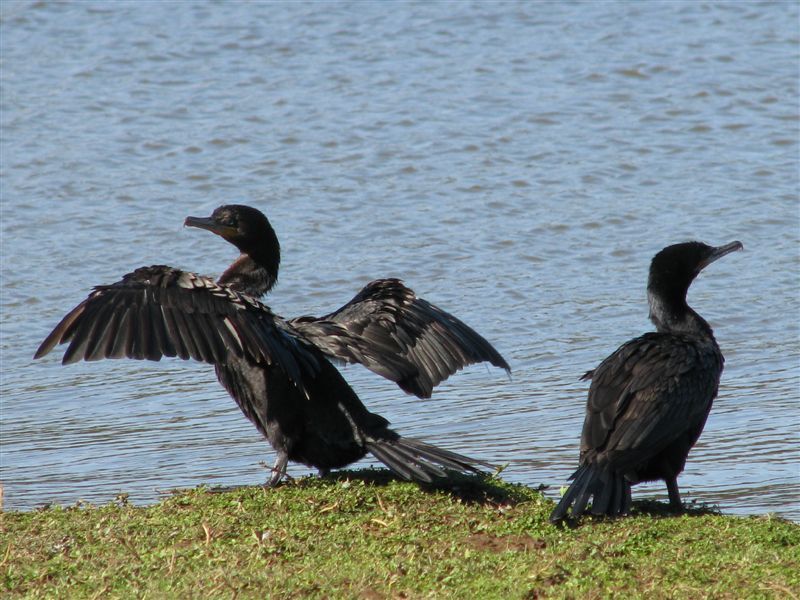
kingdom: Animalia
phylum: Chordata
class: Aves
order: Suliformes
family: Phalacrocoracidae
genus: Phalacrocorax
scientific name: Phalacrocorax brasilianus
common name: Neotropic cormorant
